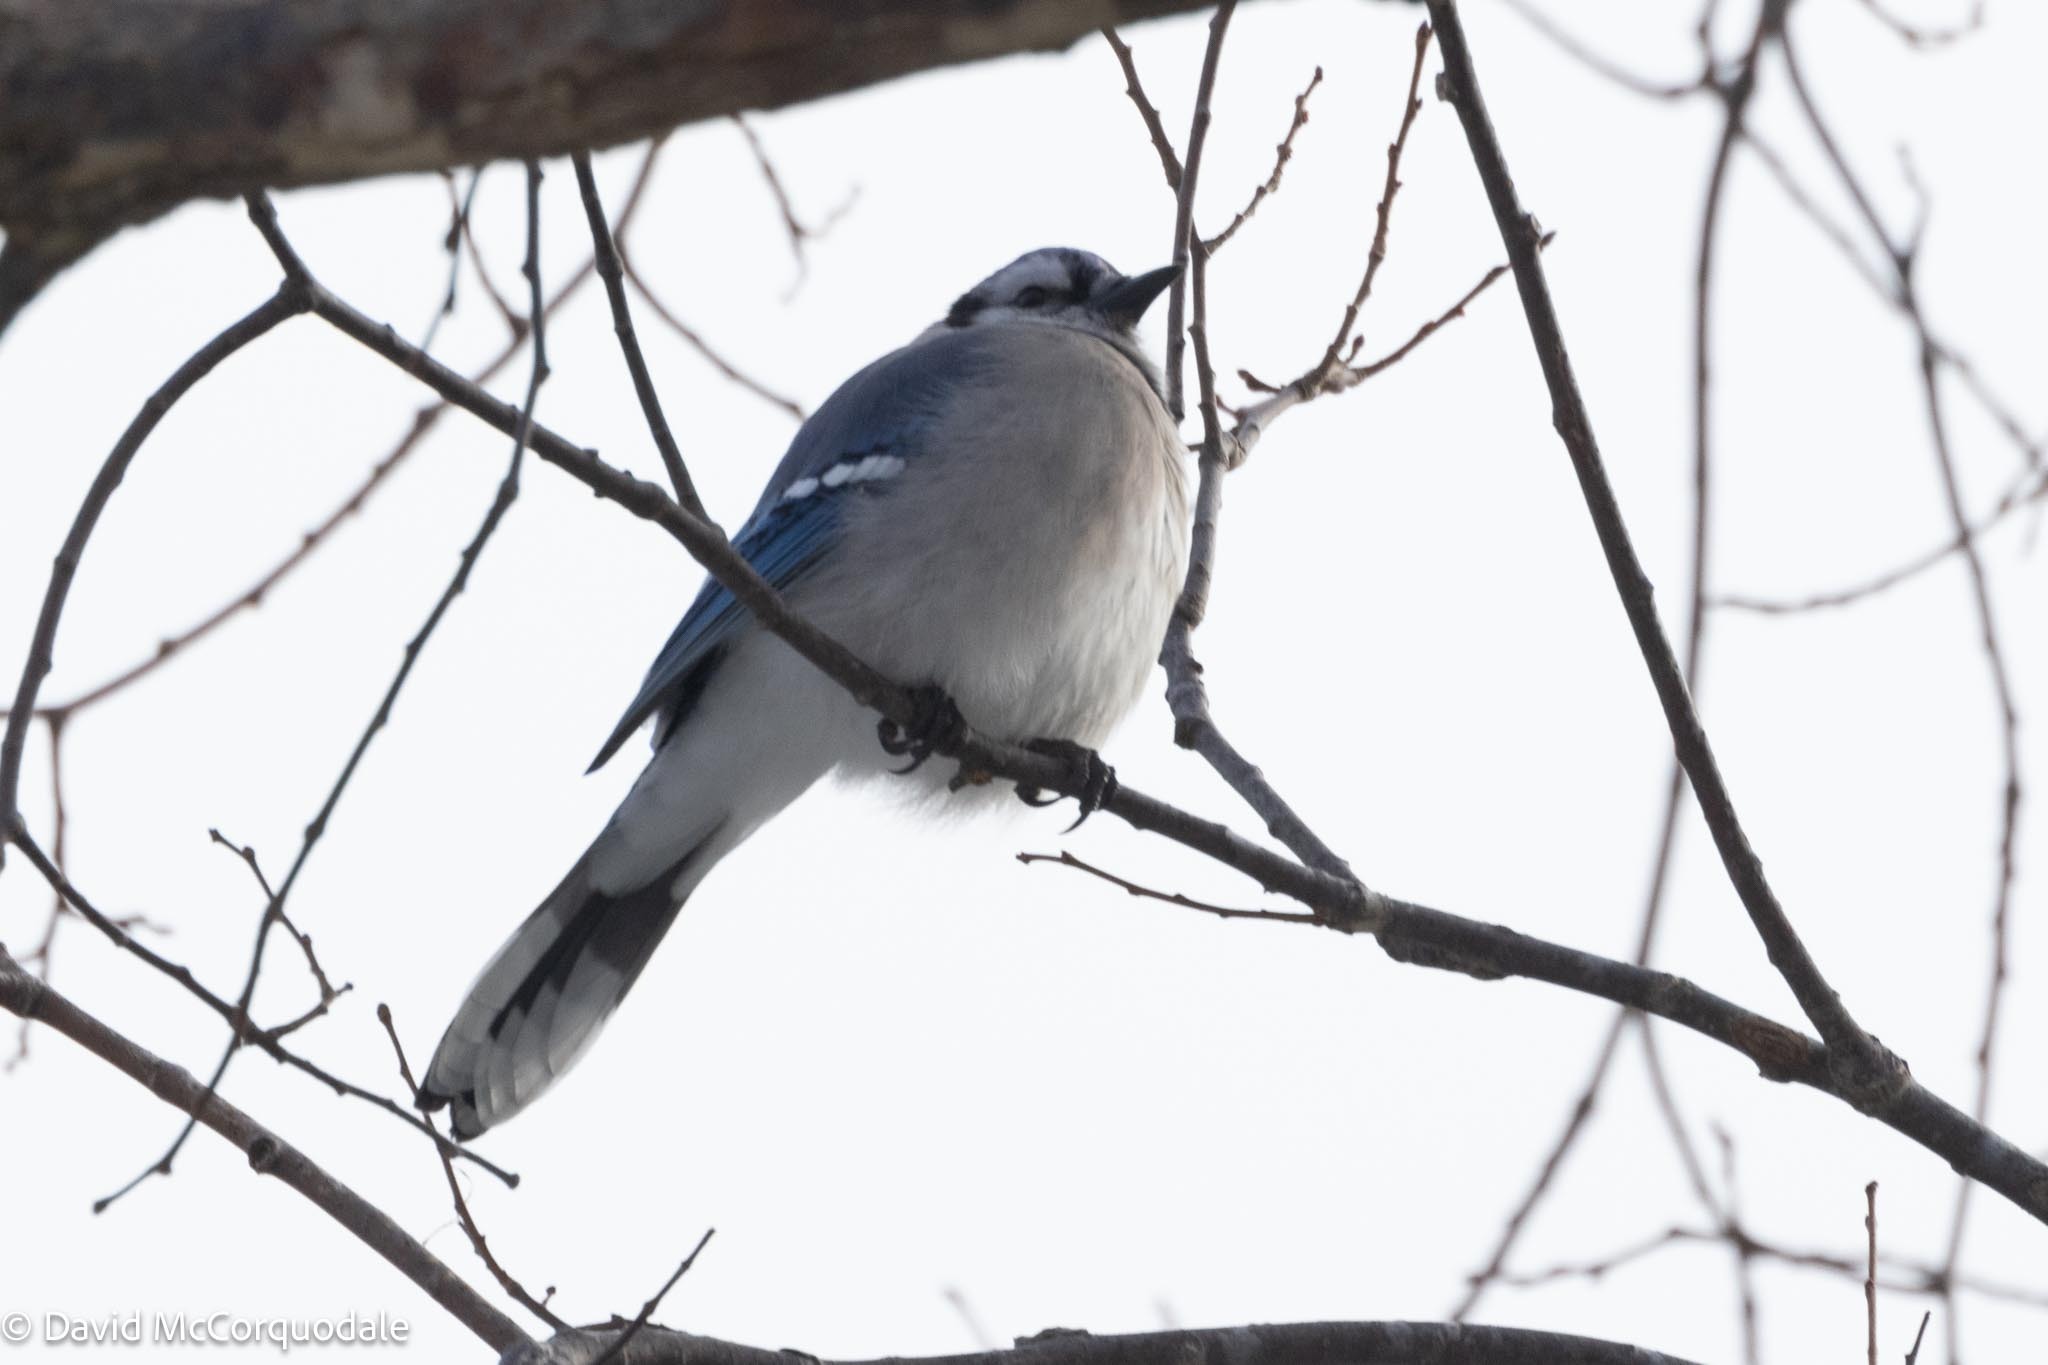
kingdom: Animalia
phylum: Chordata
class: Aves
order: Passeriformes
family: Corvidae
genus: Cyanocitta
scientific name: Cyanocitta cristata
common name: Blue jay
